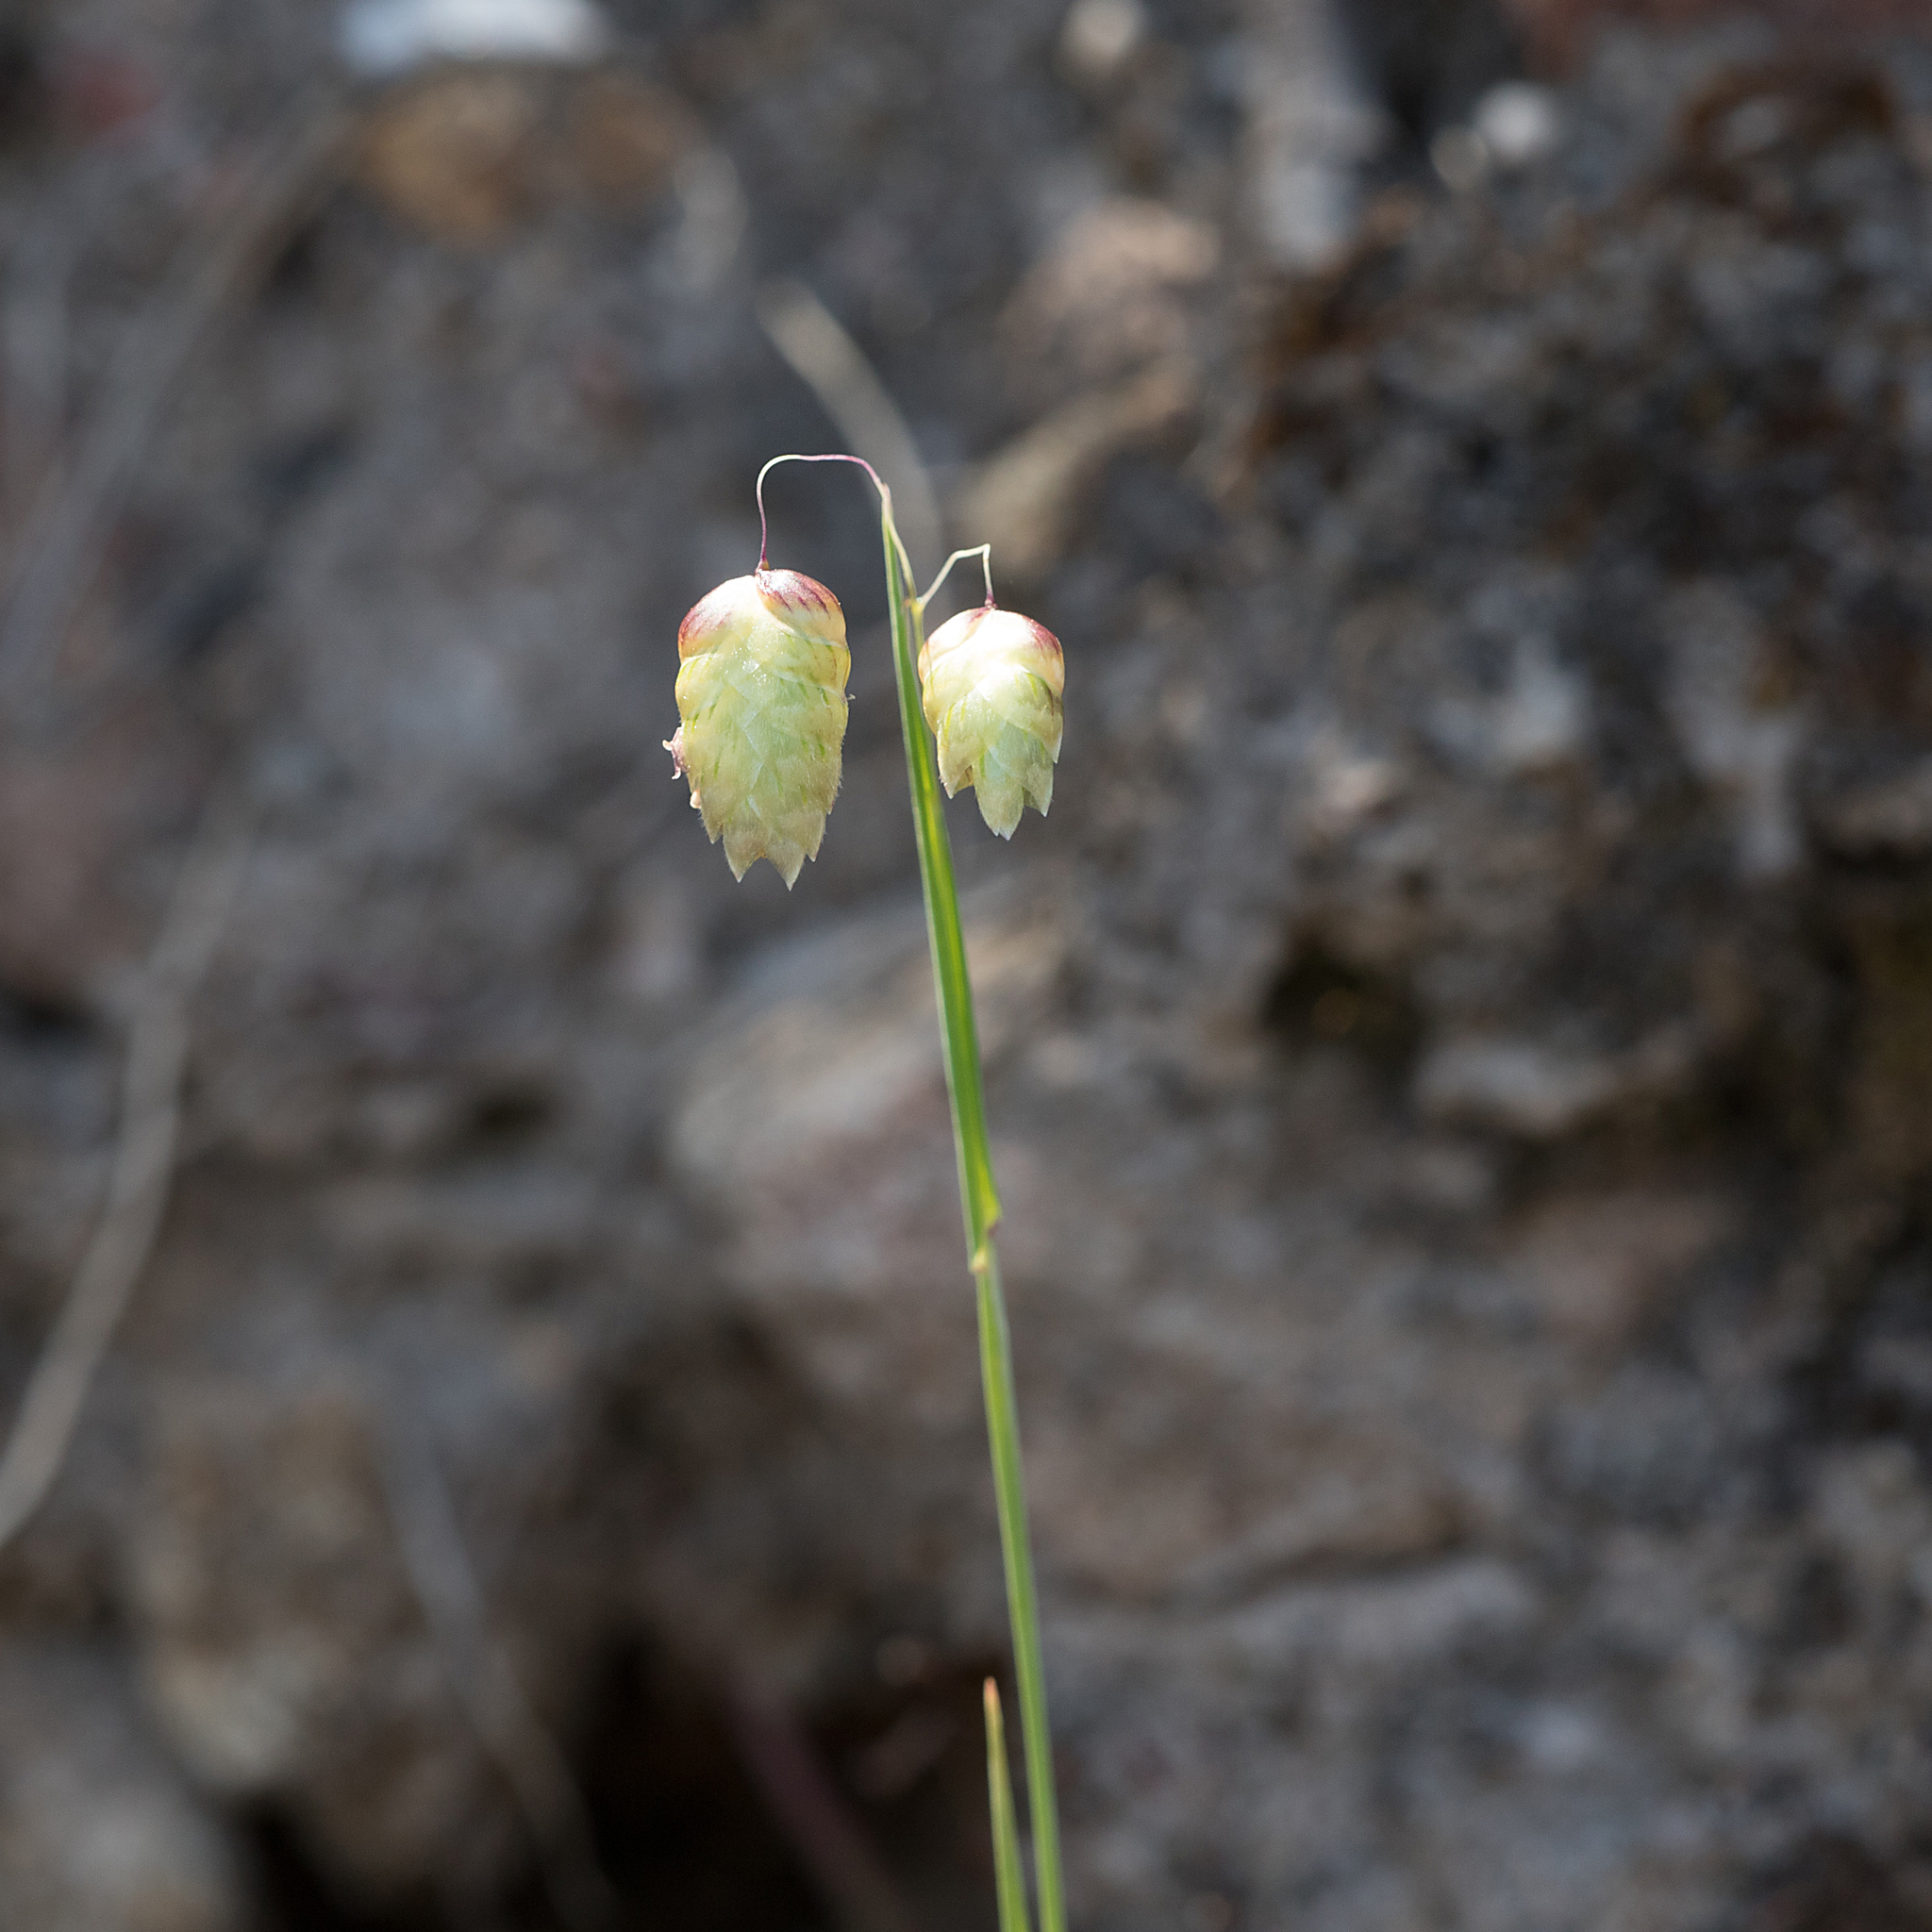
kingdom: Plantae
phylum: Tracheophyta
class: Liliopsida
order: Poales
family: Poaceae
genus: Briza
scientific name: Briza maxima
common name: Big quakinggrass
